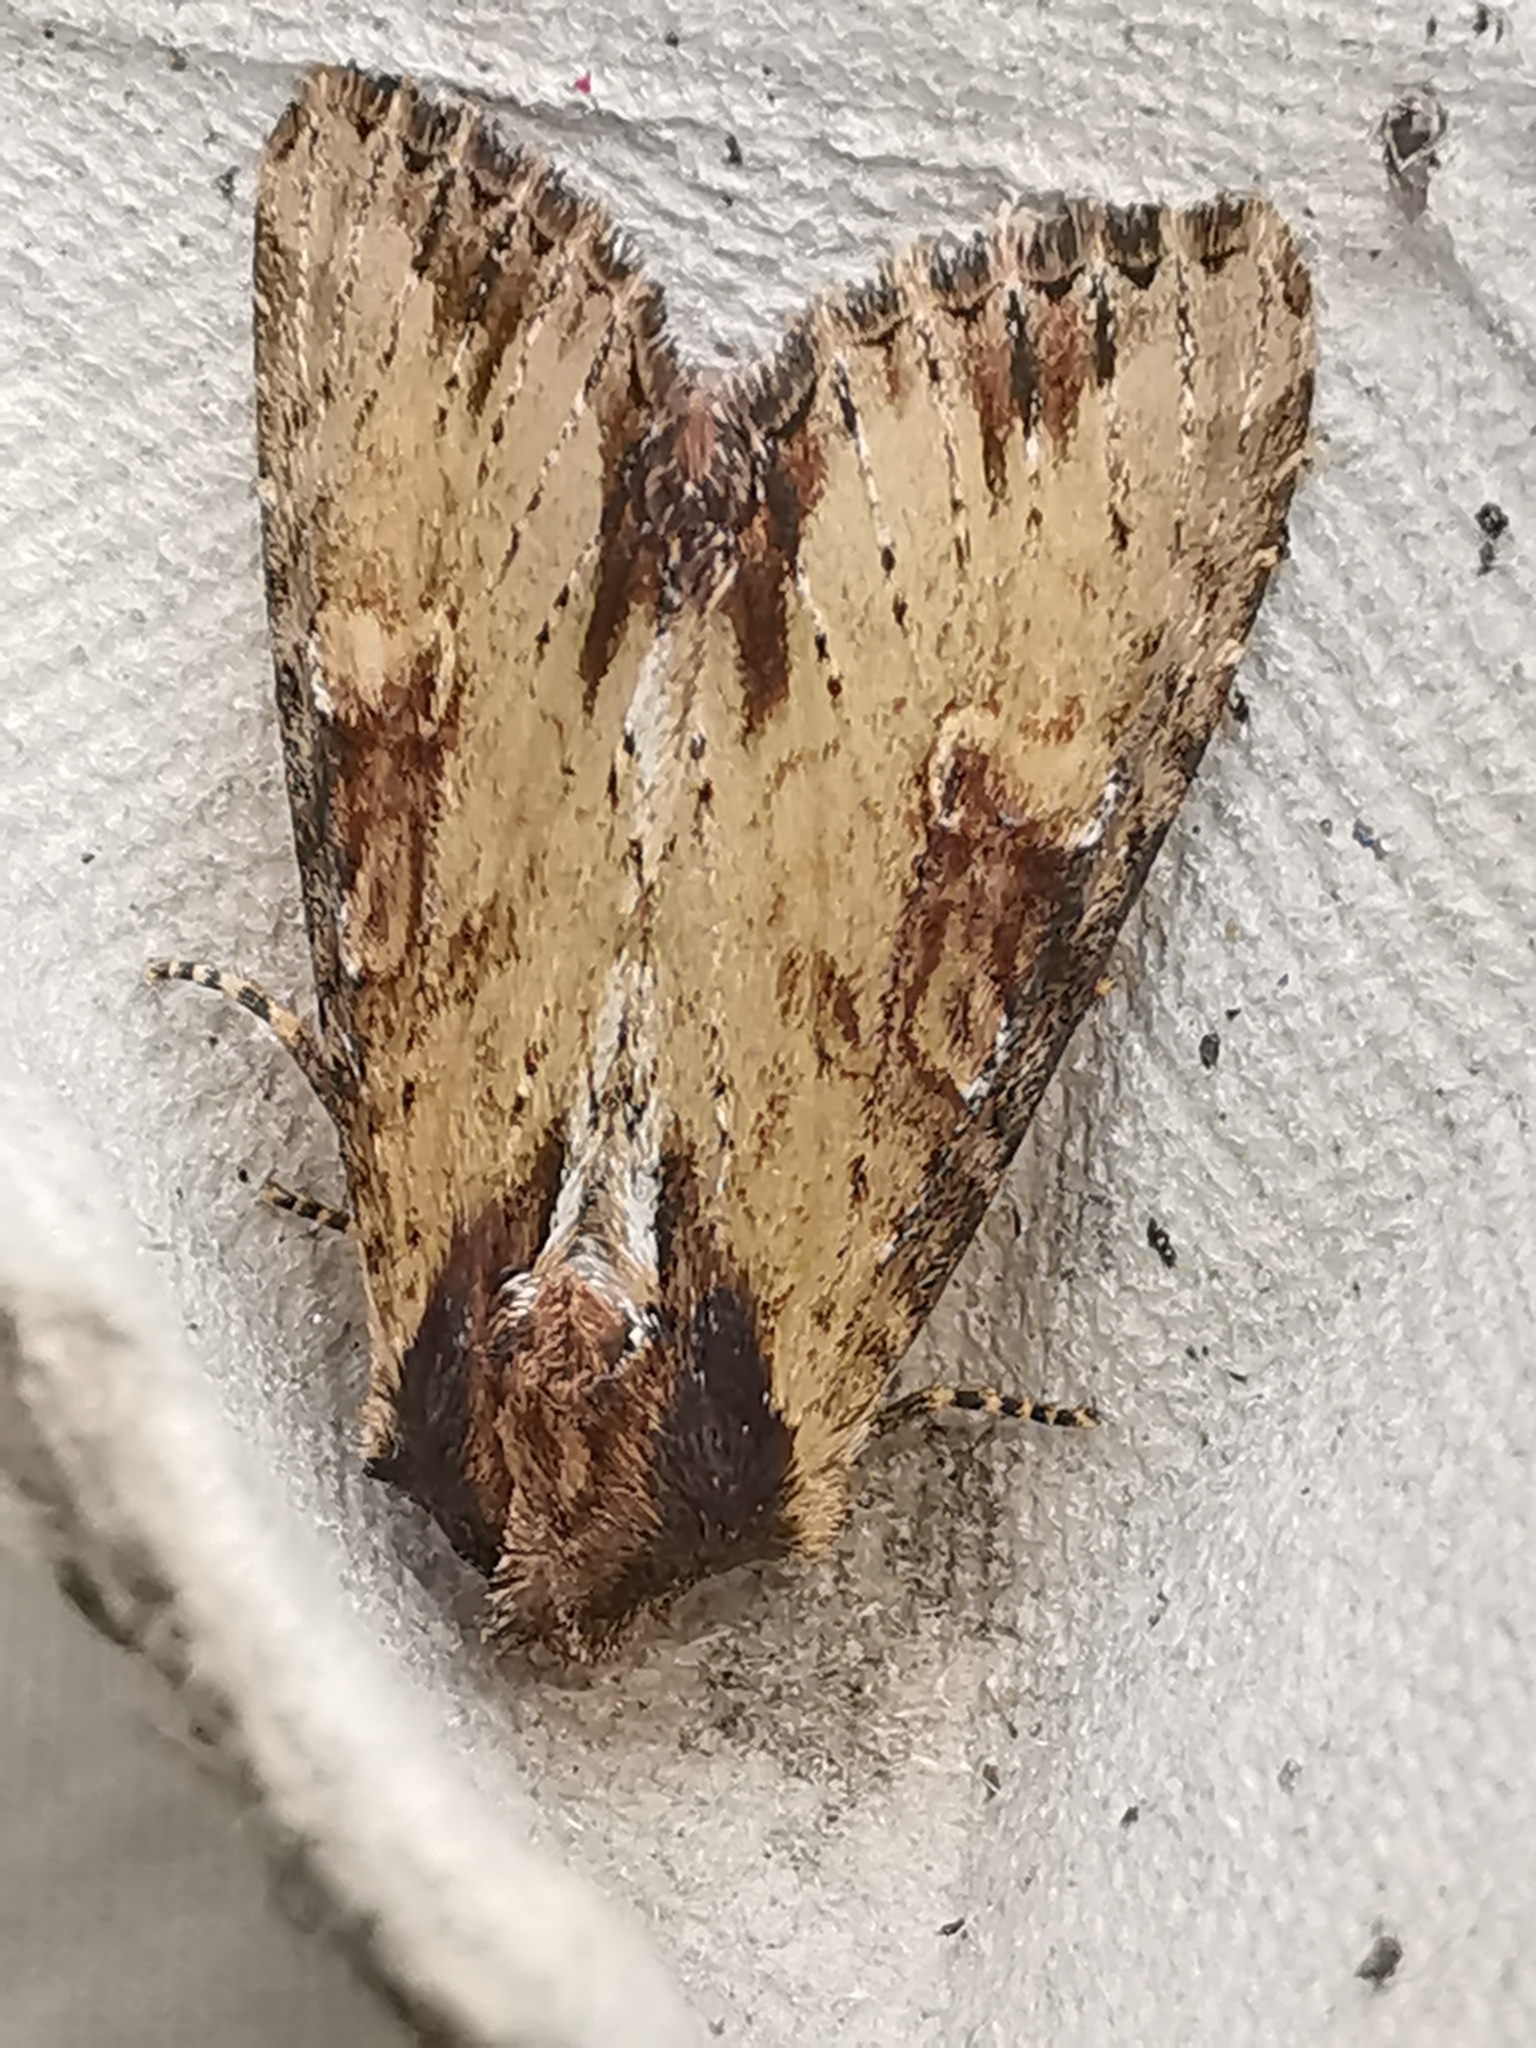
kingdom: Animalia
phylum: Arthropoda
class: Insecta
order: Lepidoptera
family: Noctuidae
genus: Apamea
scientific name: Apamea crenata
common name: Clouded-bordered brindle
